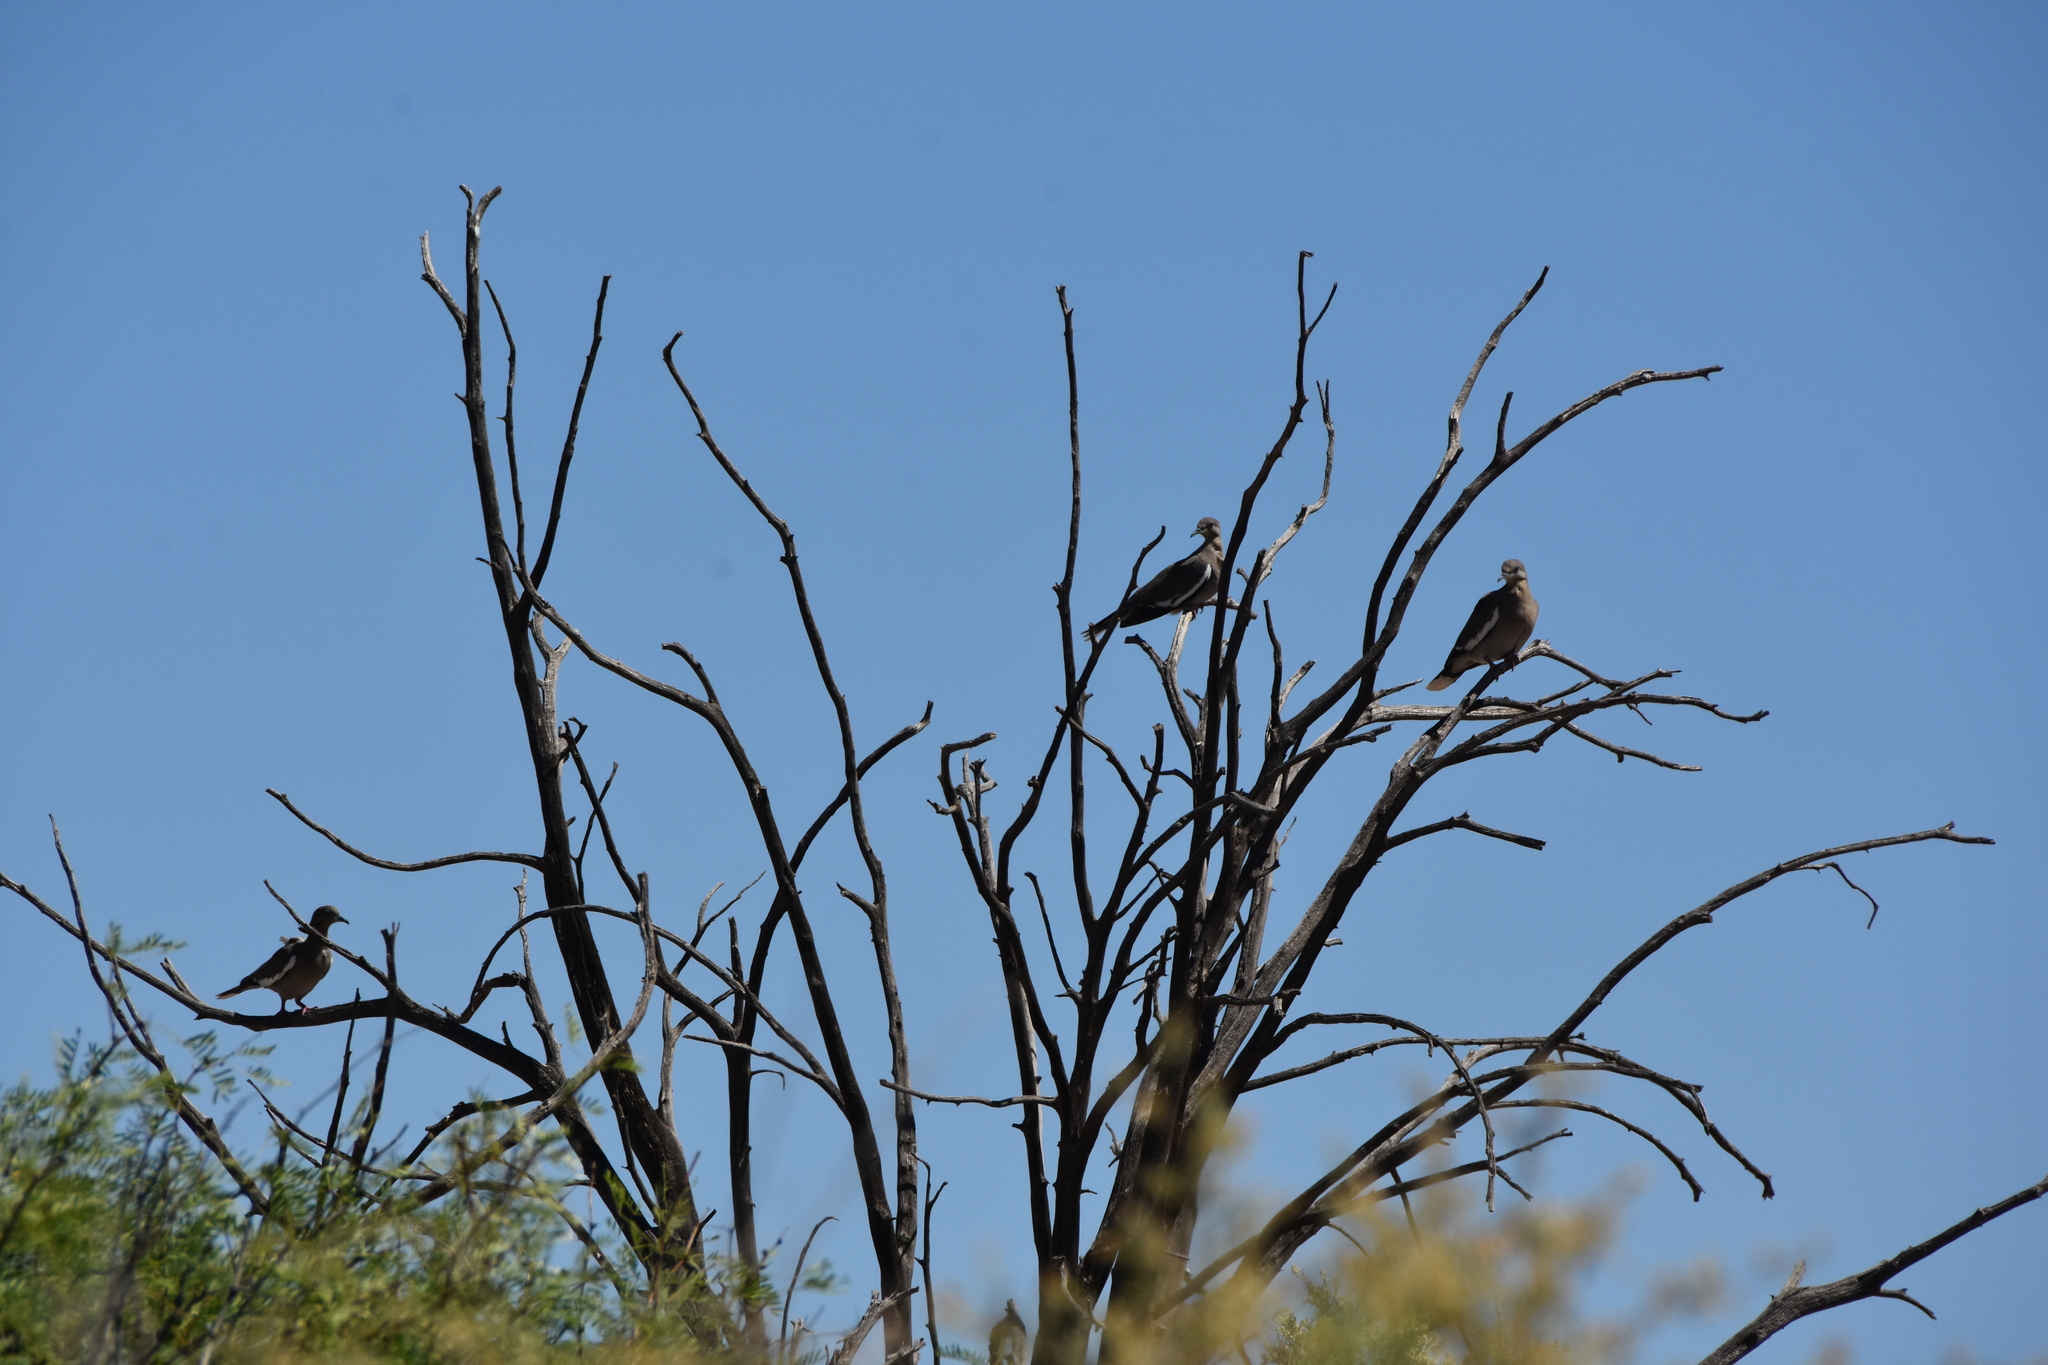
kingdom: Animalia
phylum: Chordata
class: Aves
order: Columbiformes
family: Columbidae
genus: Zenaida
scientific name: Zenaida asiatica
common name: White-winged dove
